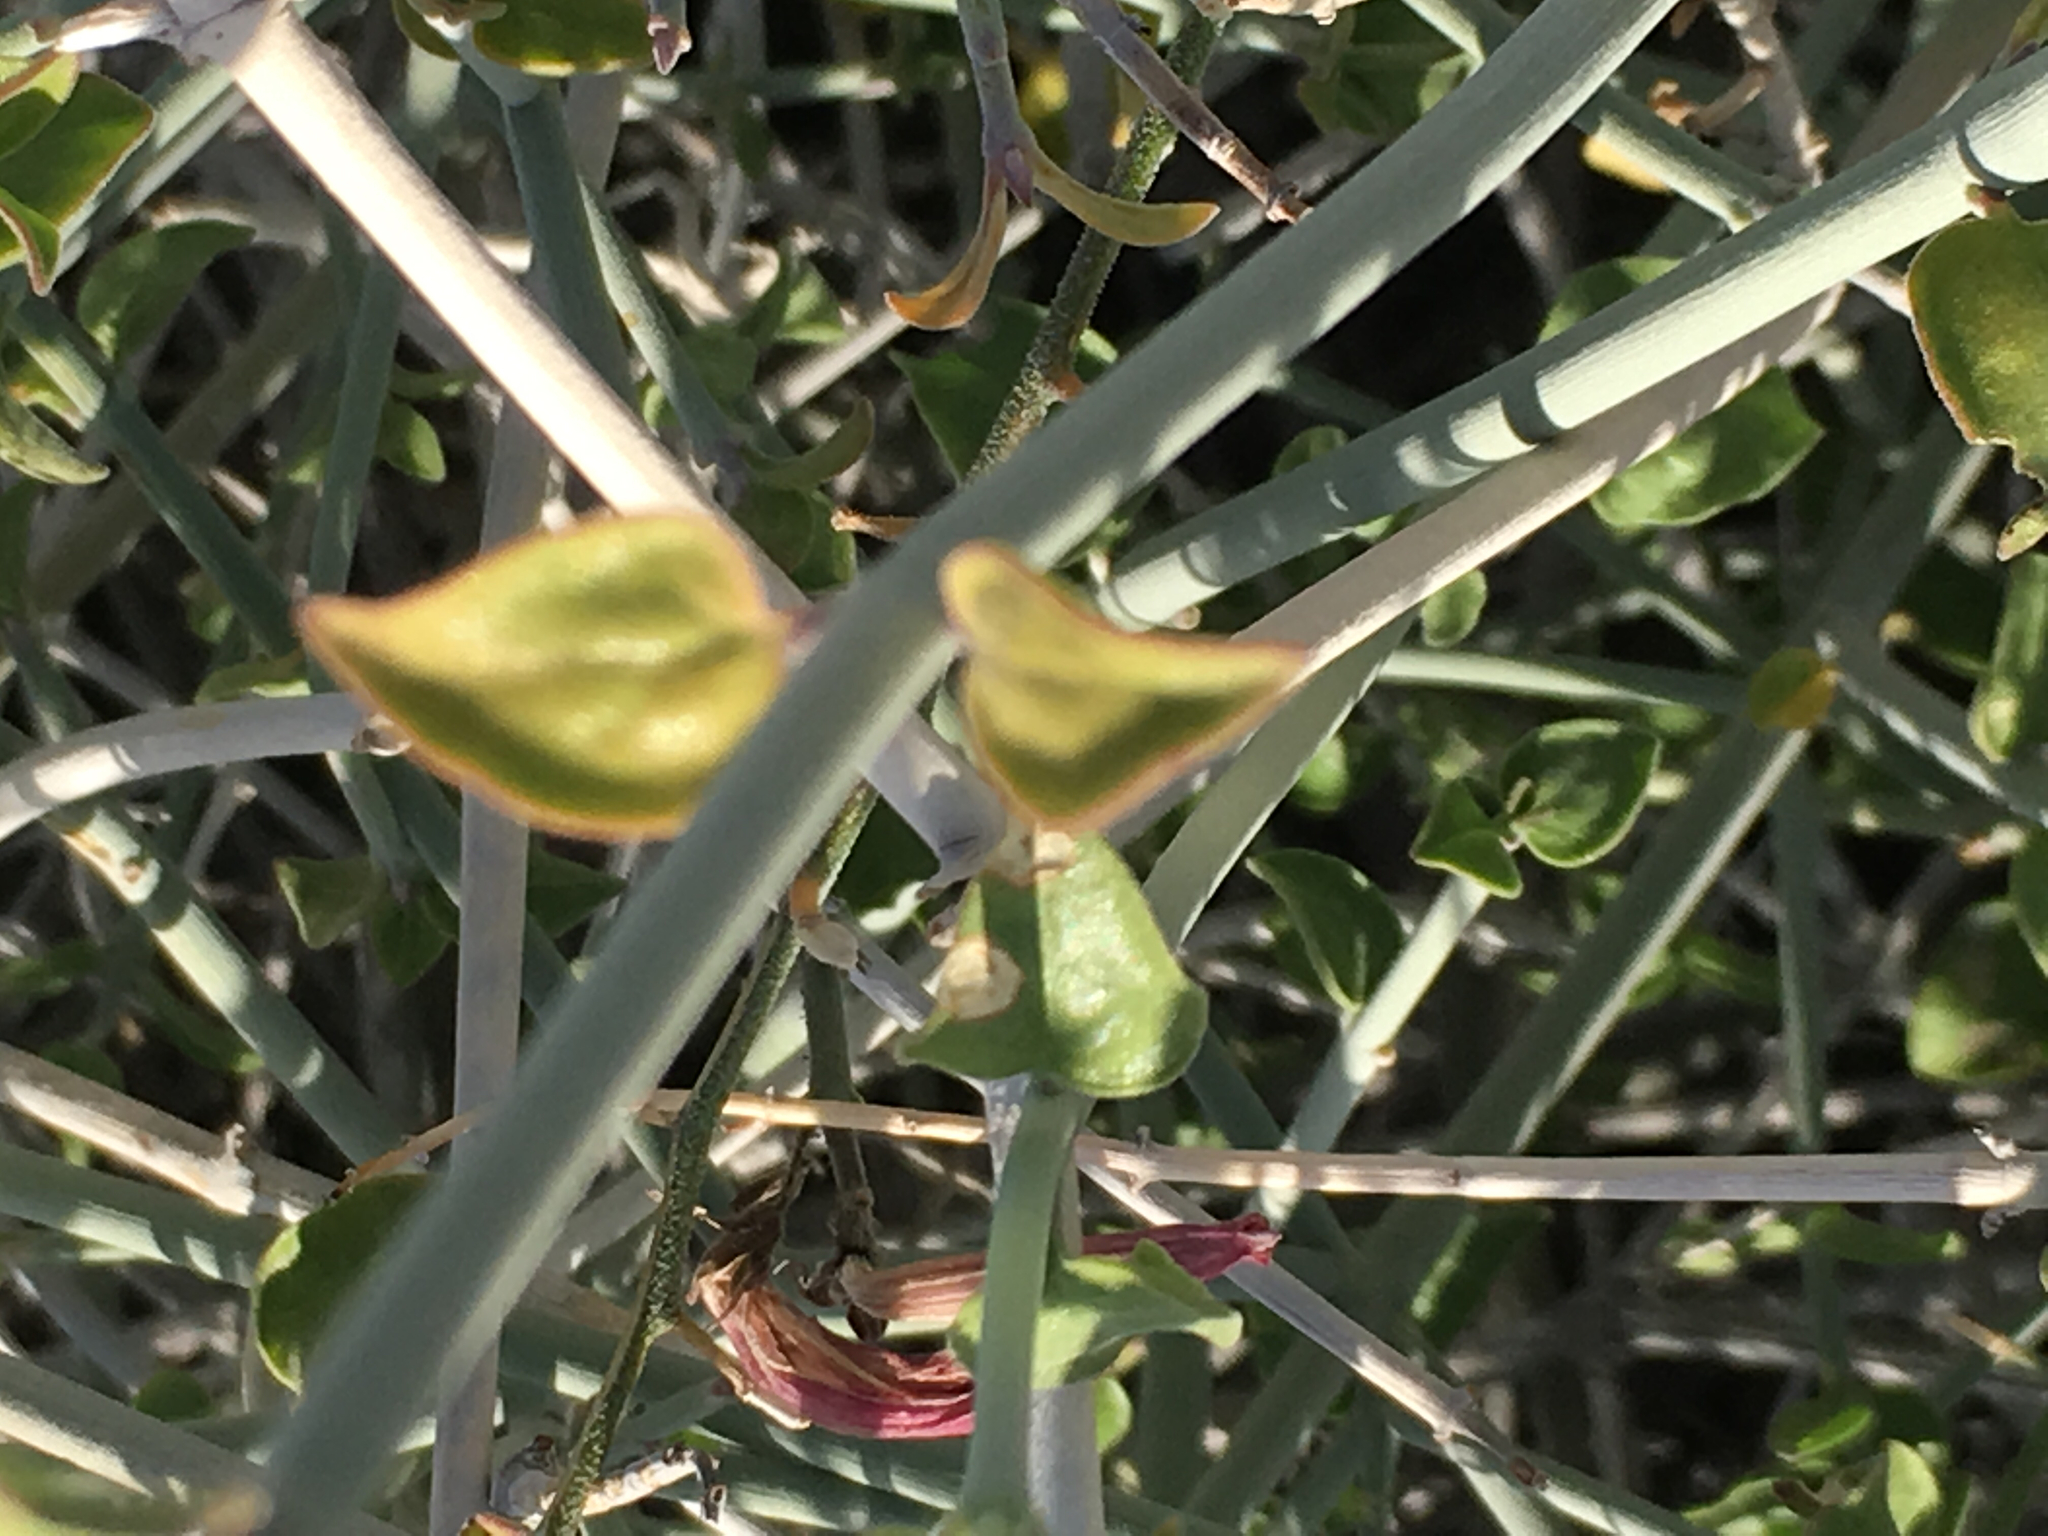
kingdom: Plantae
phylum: Tracheophyta
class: Magnoliopsida
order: Lamiales
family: Acanthaceae
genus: Justicia
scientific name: Justicia californica
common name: Chuparosa-honeysuckle
